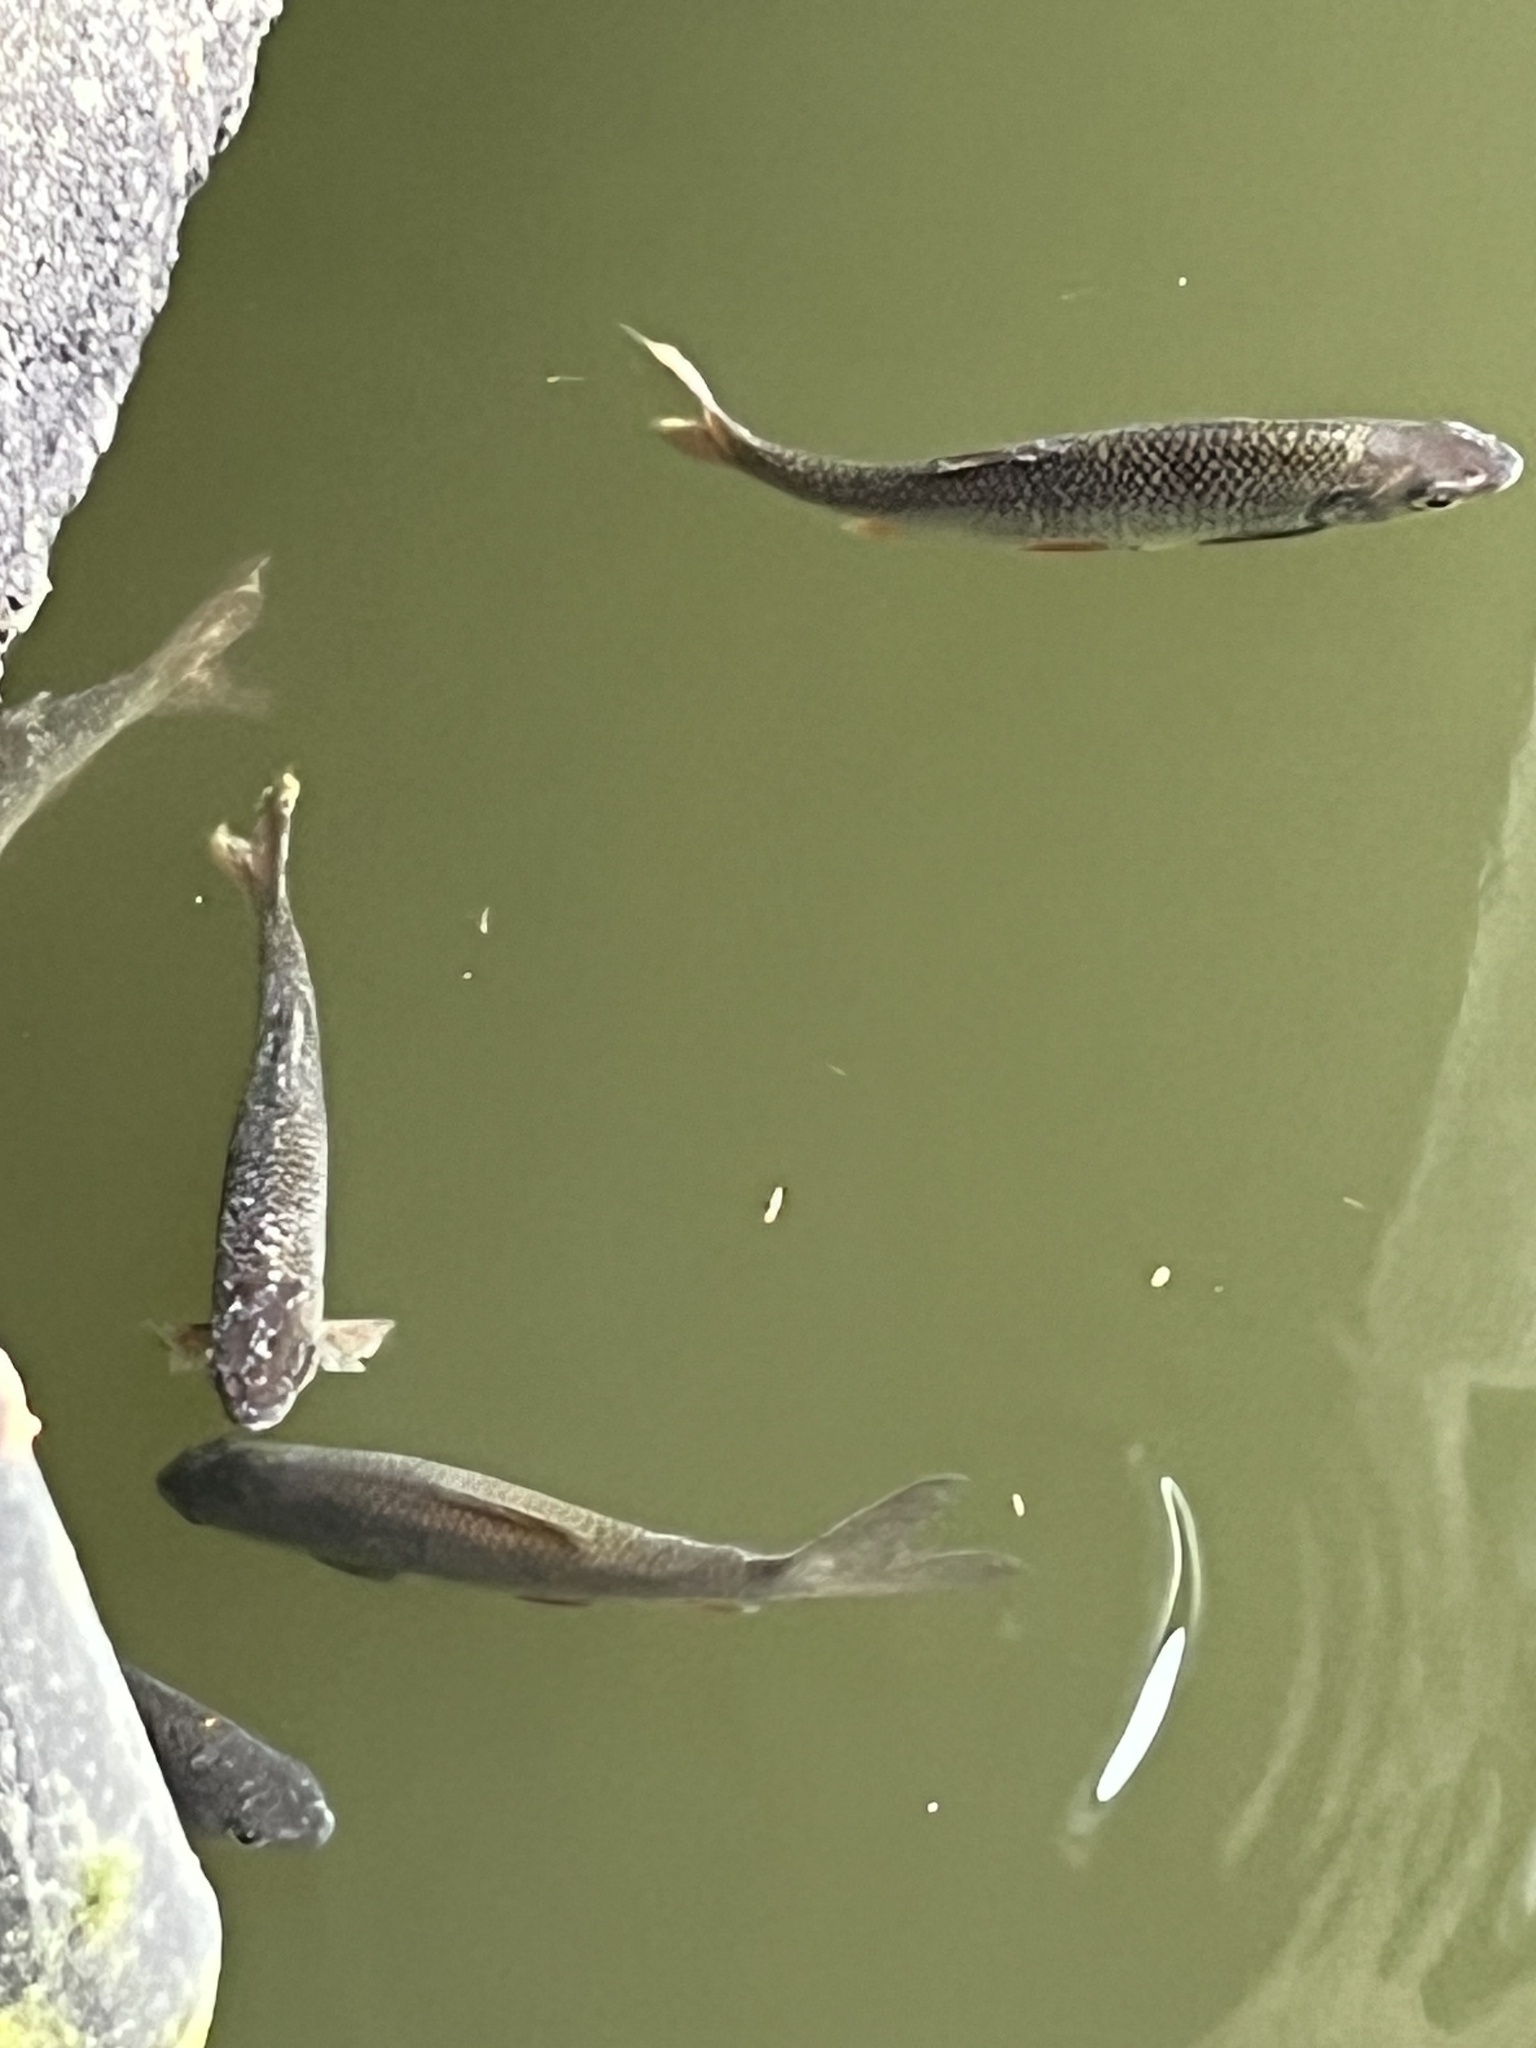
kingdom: Animalia
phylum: Chordata
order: Cypriniformes
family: Cyprinidae
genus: Rutilus
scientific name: Rutilus rutilus
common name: Roach
